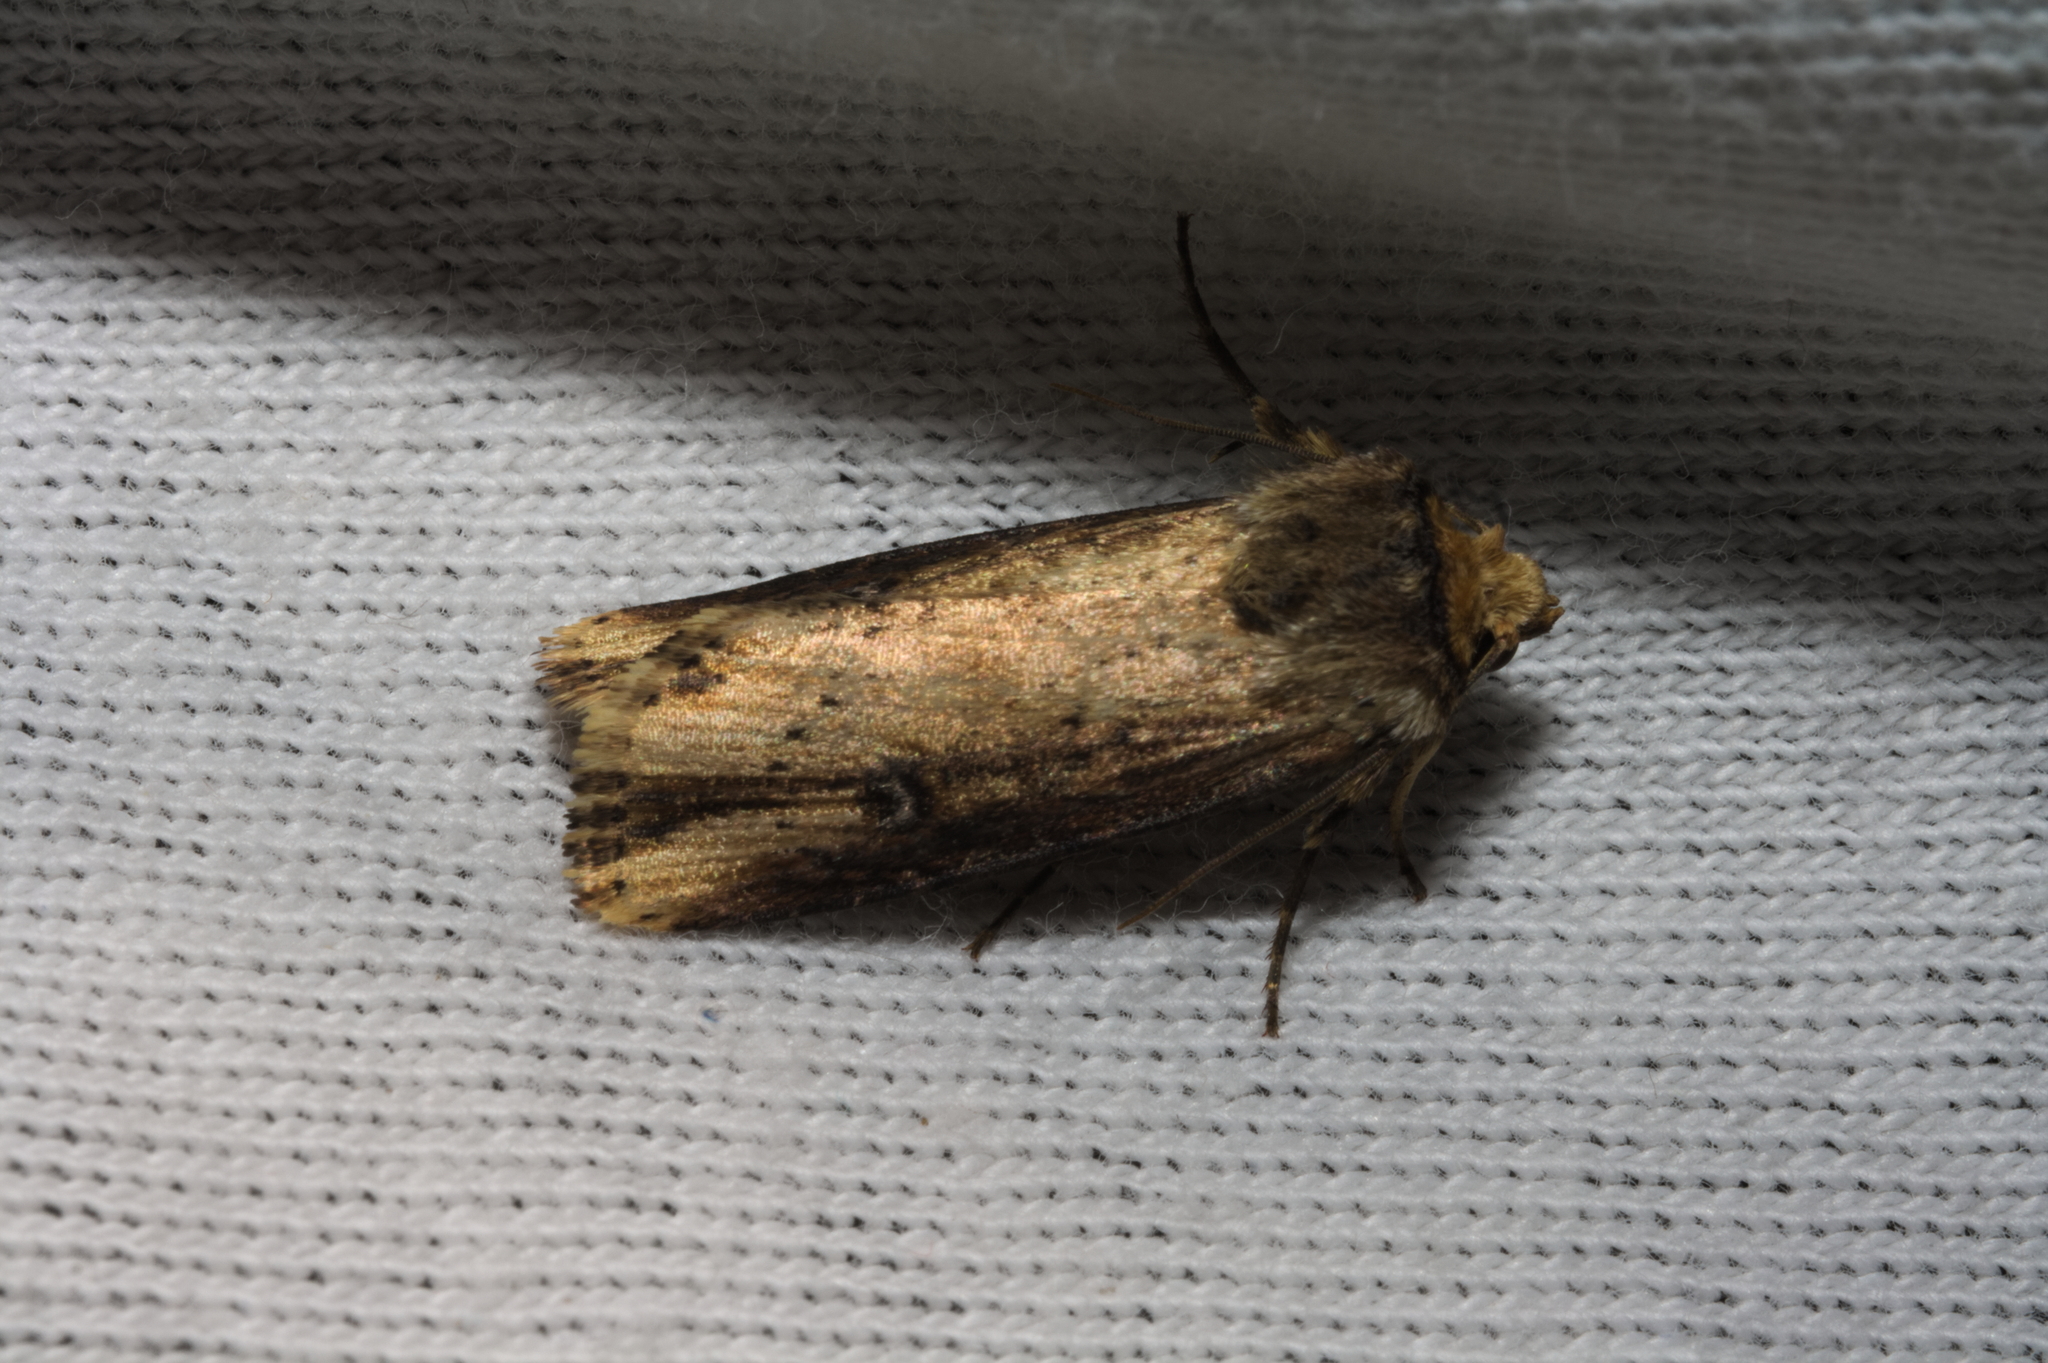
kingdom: Animalia
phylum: Arthropoda
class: Insecta
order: Lepidoptera
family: Noctuidae
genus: Axylia
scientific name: Axylia putris
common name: Flame
